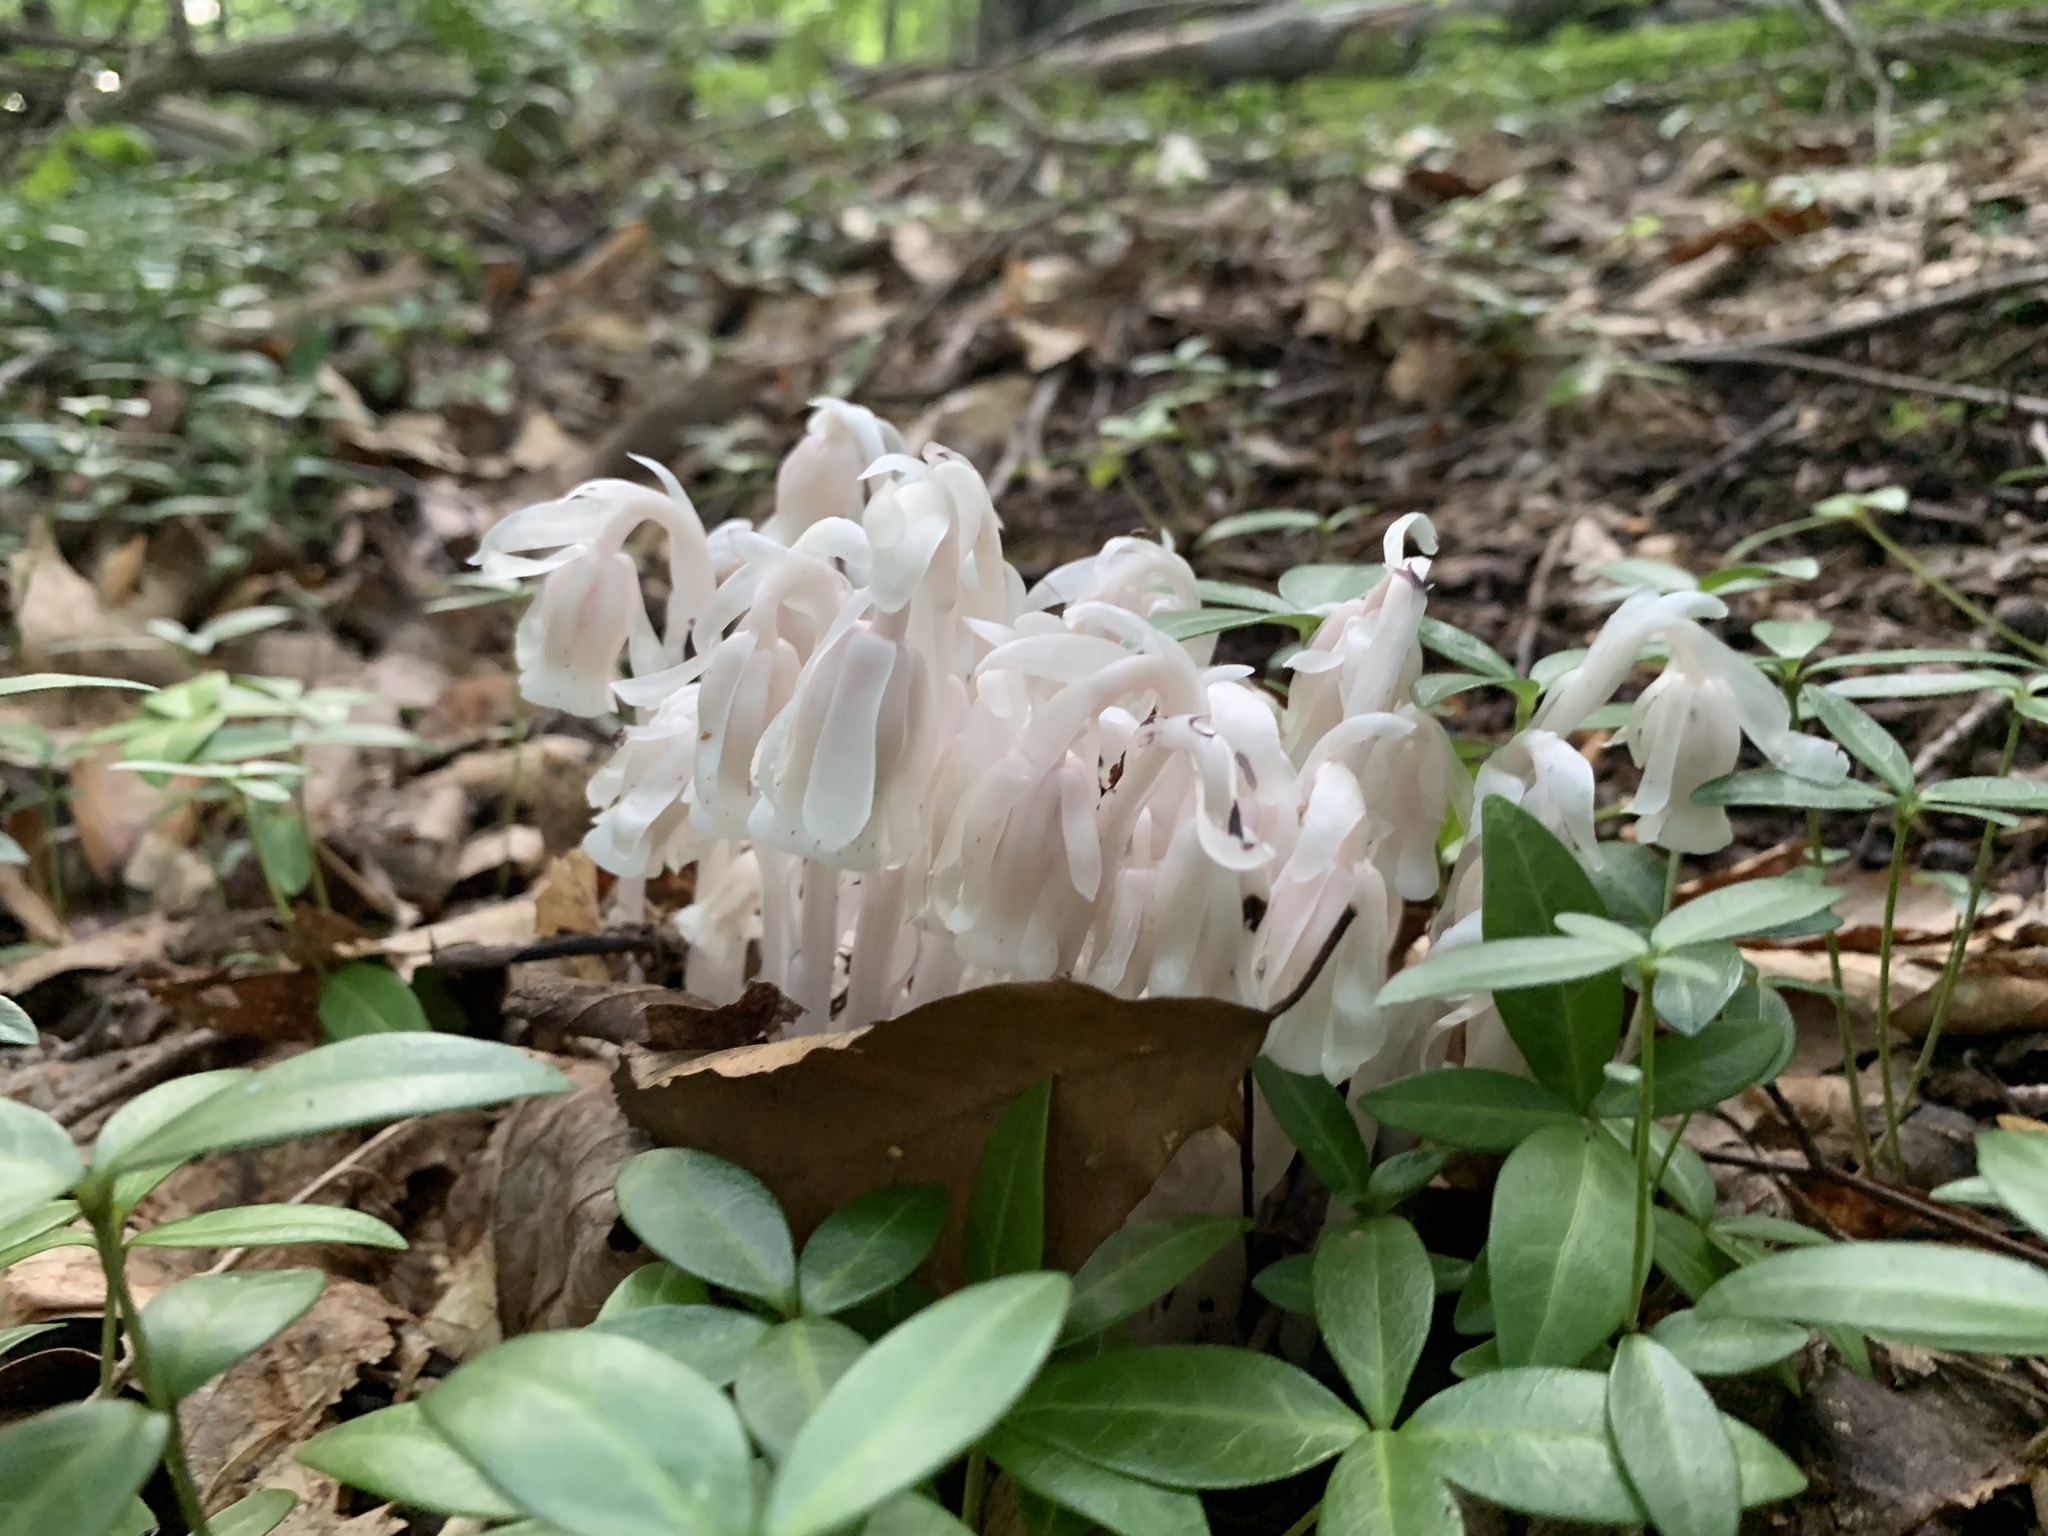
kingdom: Plantae
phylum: Tracheophyta
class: Magnoliopsida
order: Ericales
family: Ericaceae
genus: Monotropa
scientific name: Monotropa uniflora
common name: Convulsion root
